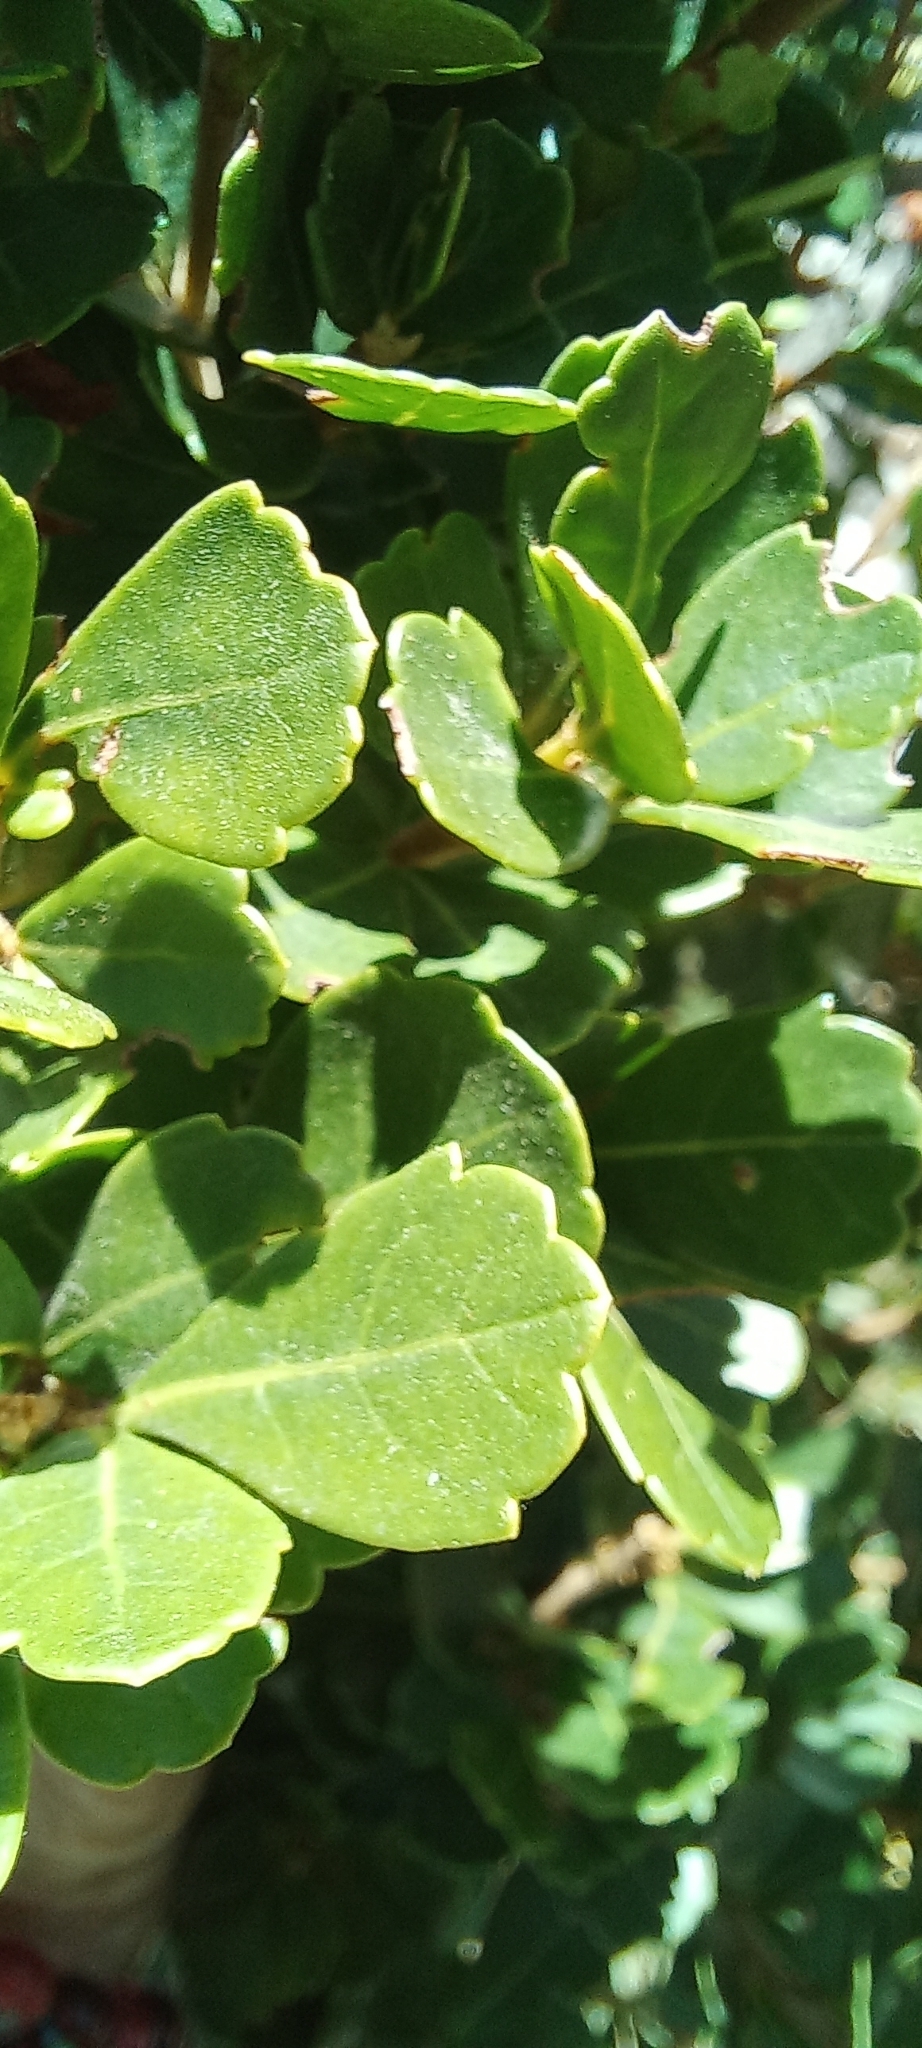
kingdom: Plantae
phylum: Tracheophyta
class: Magnoliopsida
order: Sapindales
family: Anacardiaceae
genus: Searsia
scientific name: Searsia crenata
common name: Crowberry
